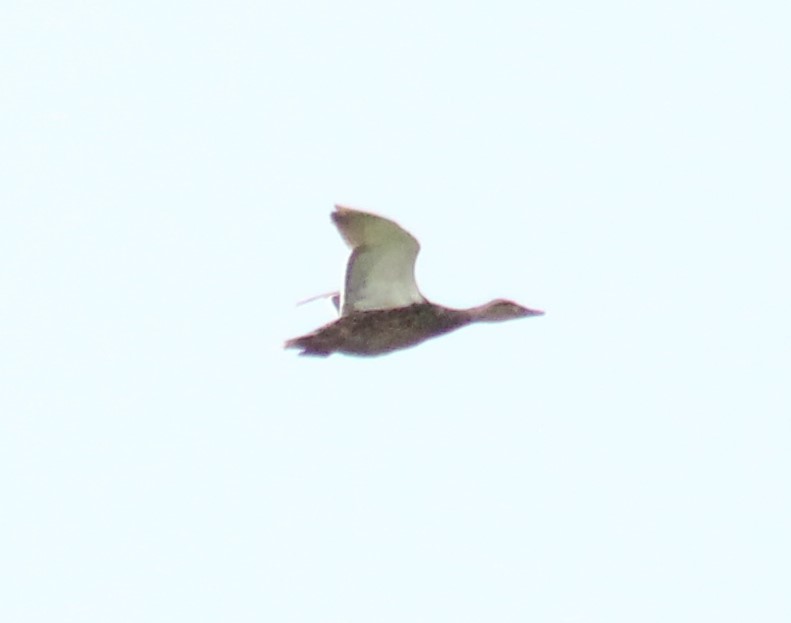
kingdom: Animalia
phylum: Chordata
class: Aves
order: Anseriformes
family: Anatidae
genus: Anas
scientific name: Anas platyrhynchos
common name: Mallard
